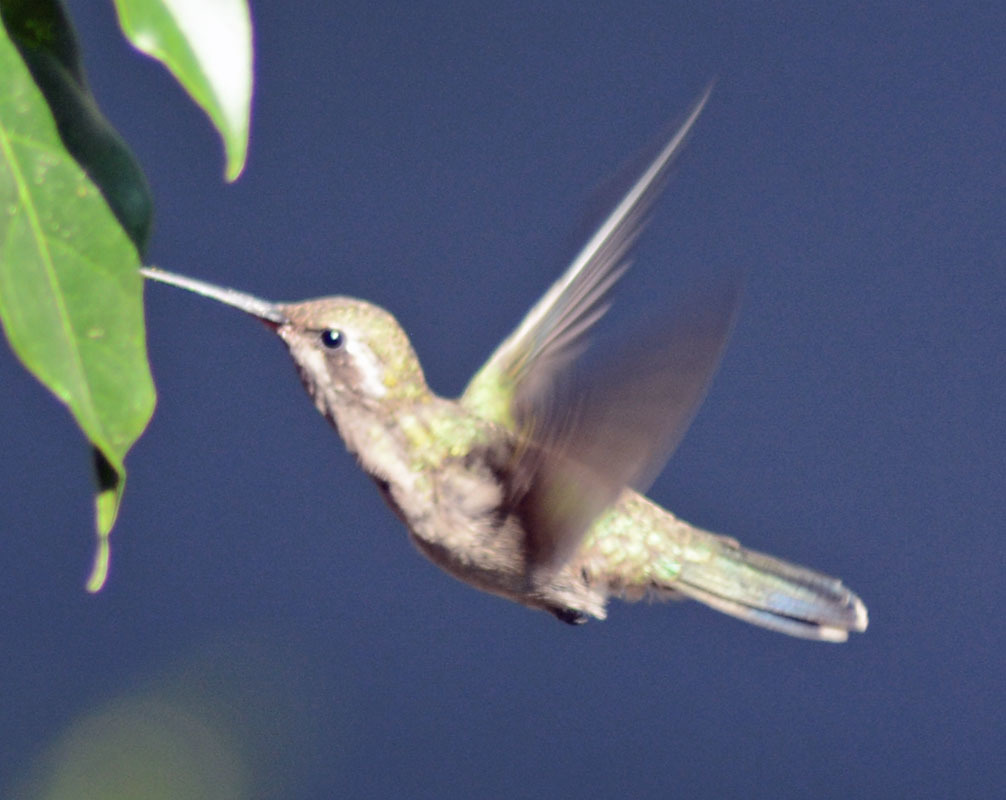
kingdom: Animalia
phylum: Chordata
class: Aves
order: Apodiformes
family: Trochilidae
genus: Cynanthus
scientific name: Cynanthus latirostris
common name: Broad-billed hummingbird
